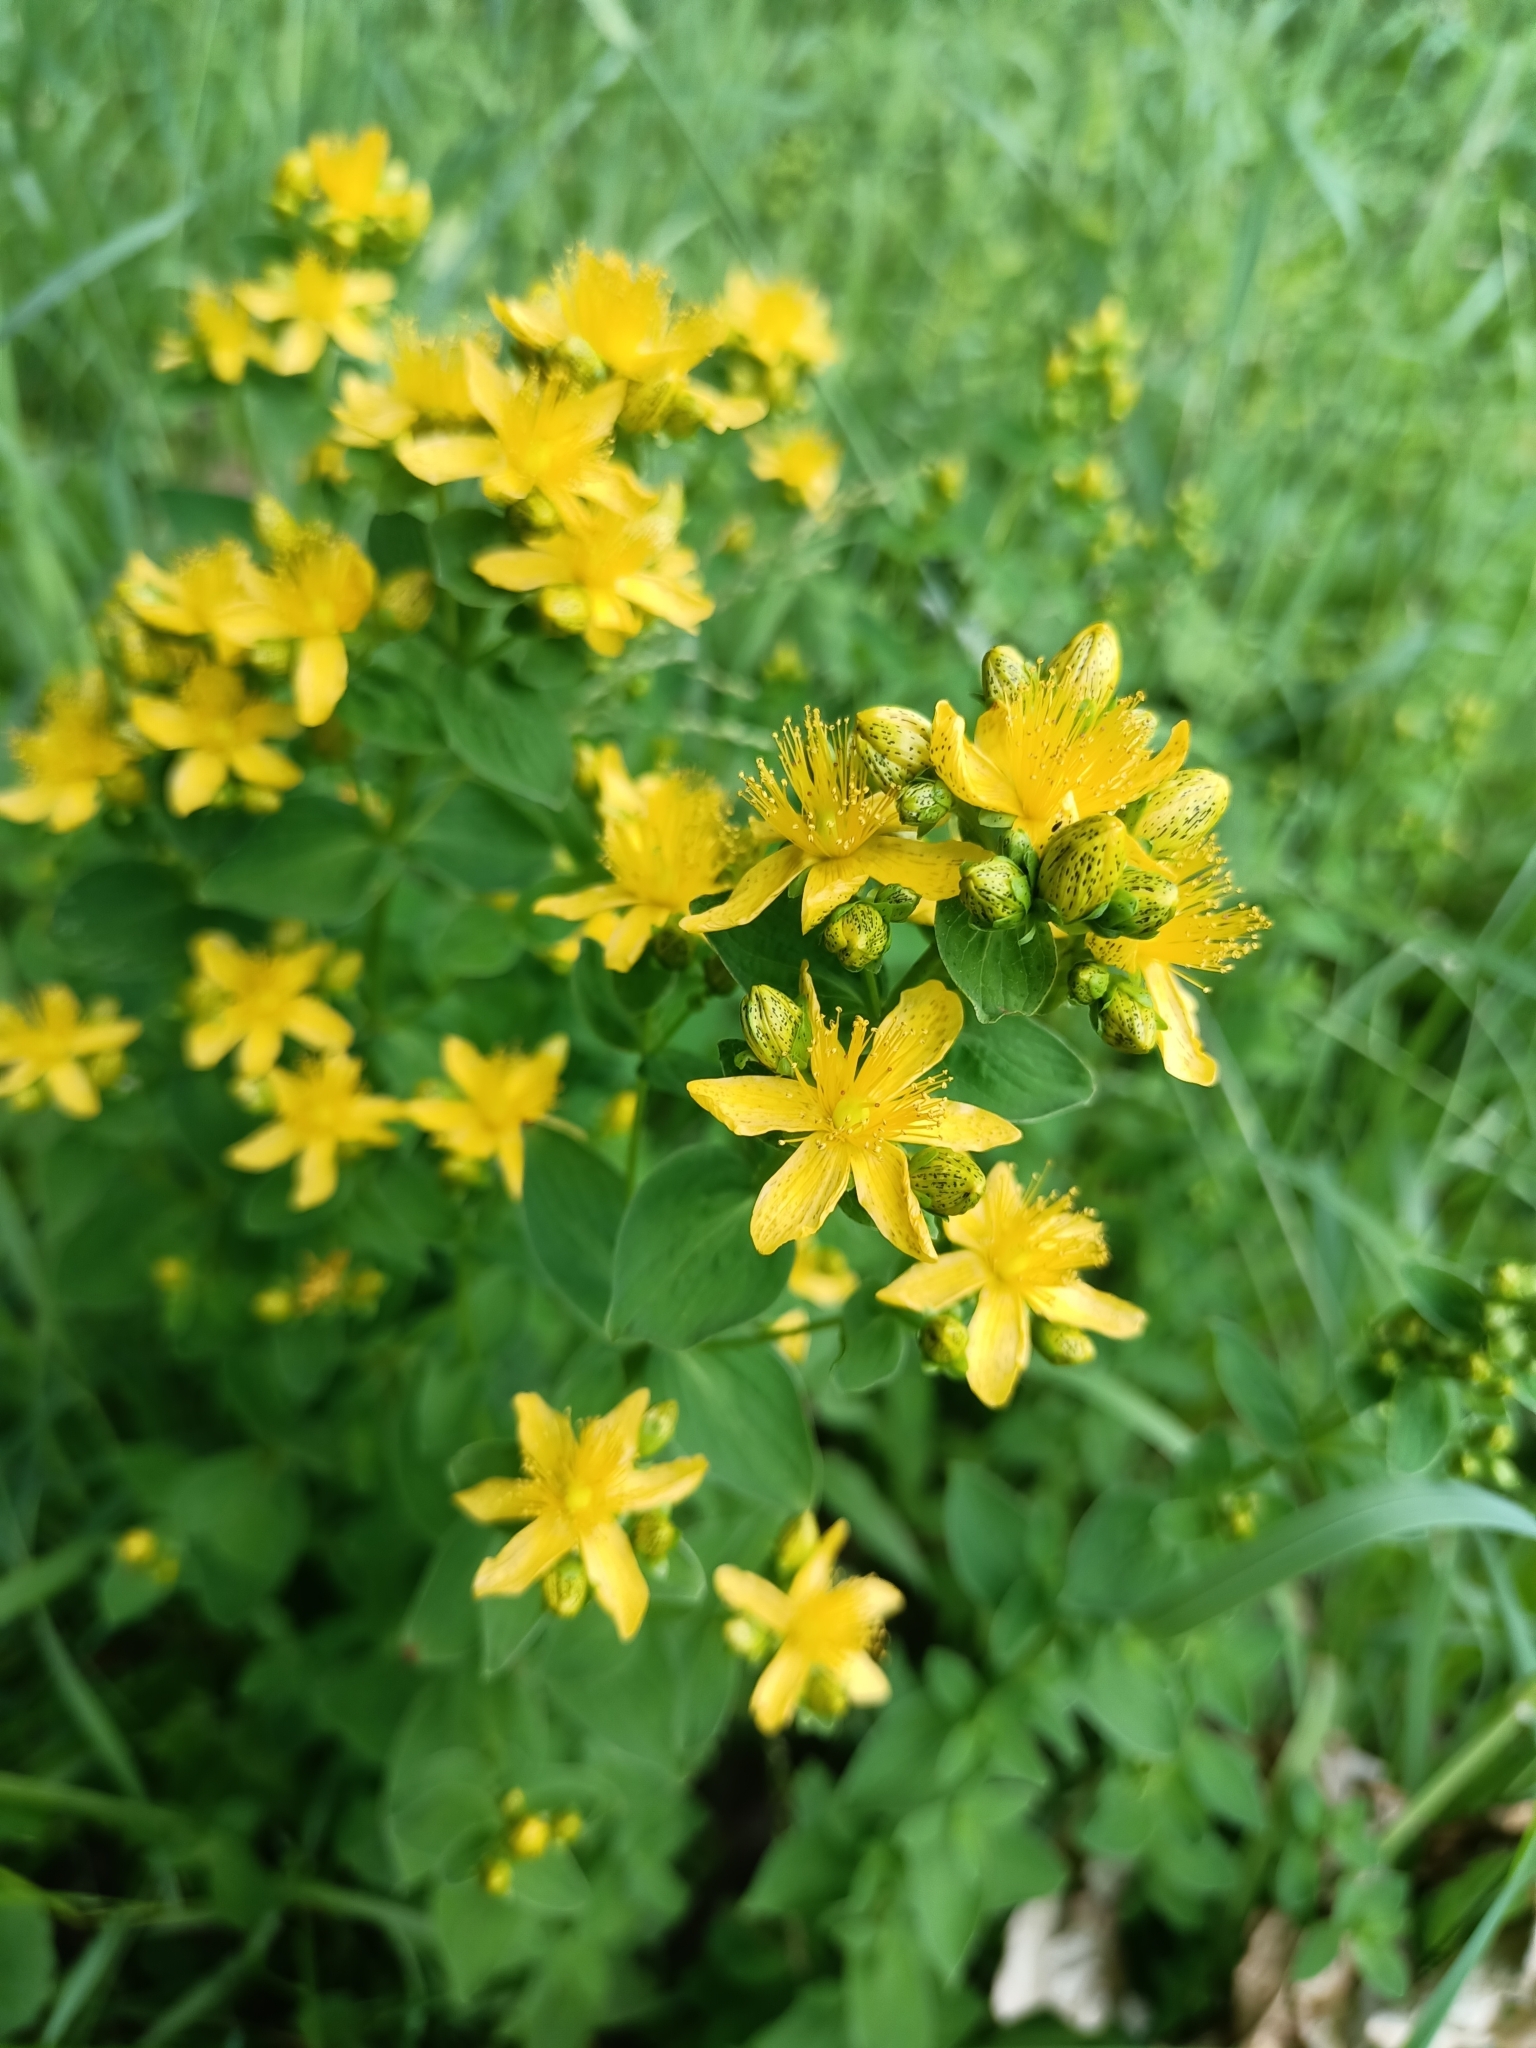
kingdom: Plantae
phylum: Tracheophyta
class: Magnoliopsida
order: Malpighiales
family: Hypericaceae
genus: Hypericum
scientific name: Hypericum maculatum
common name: Imperforate st. john's-wort
